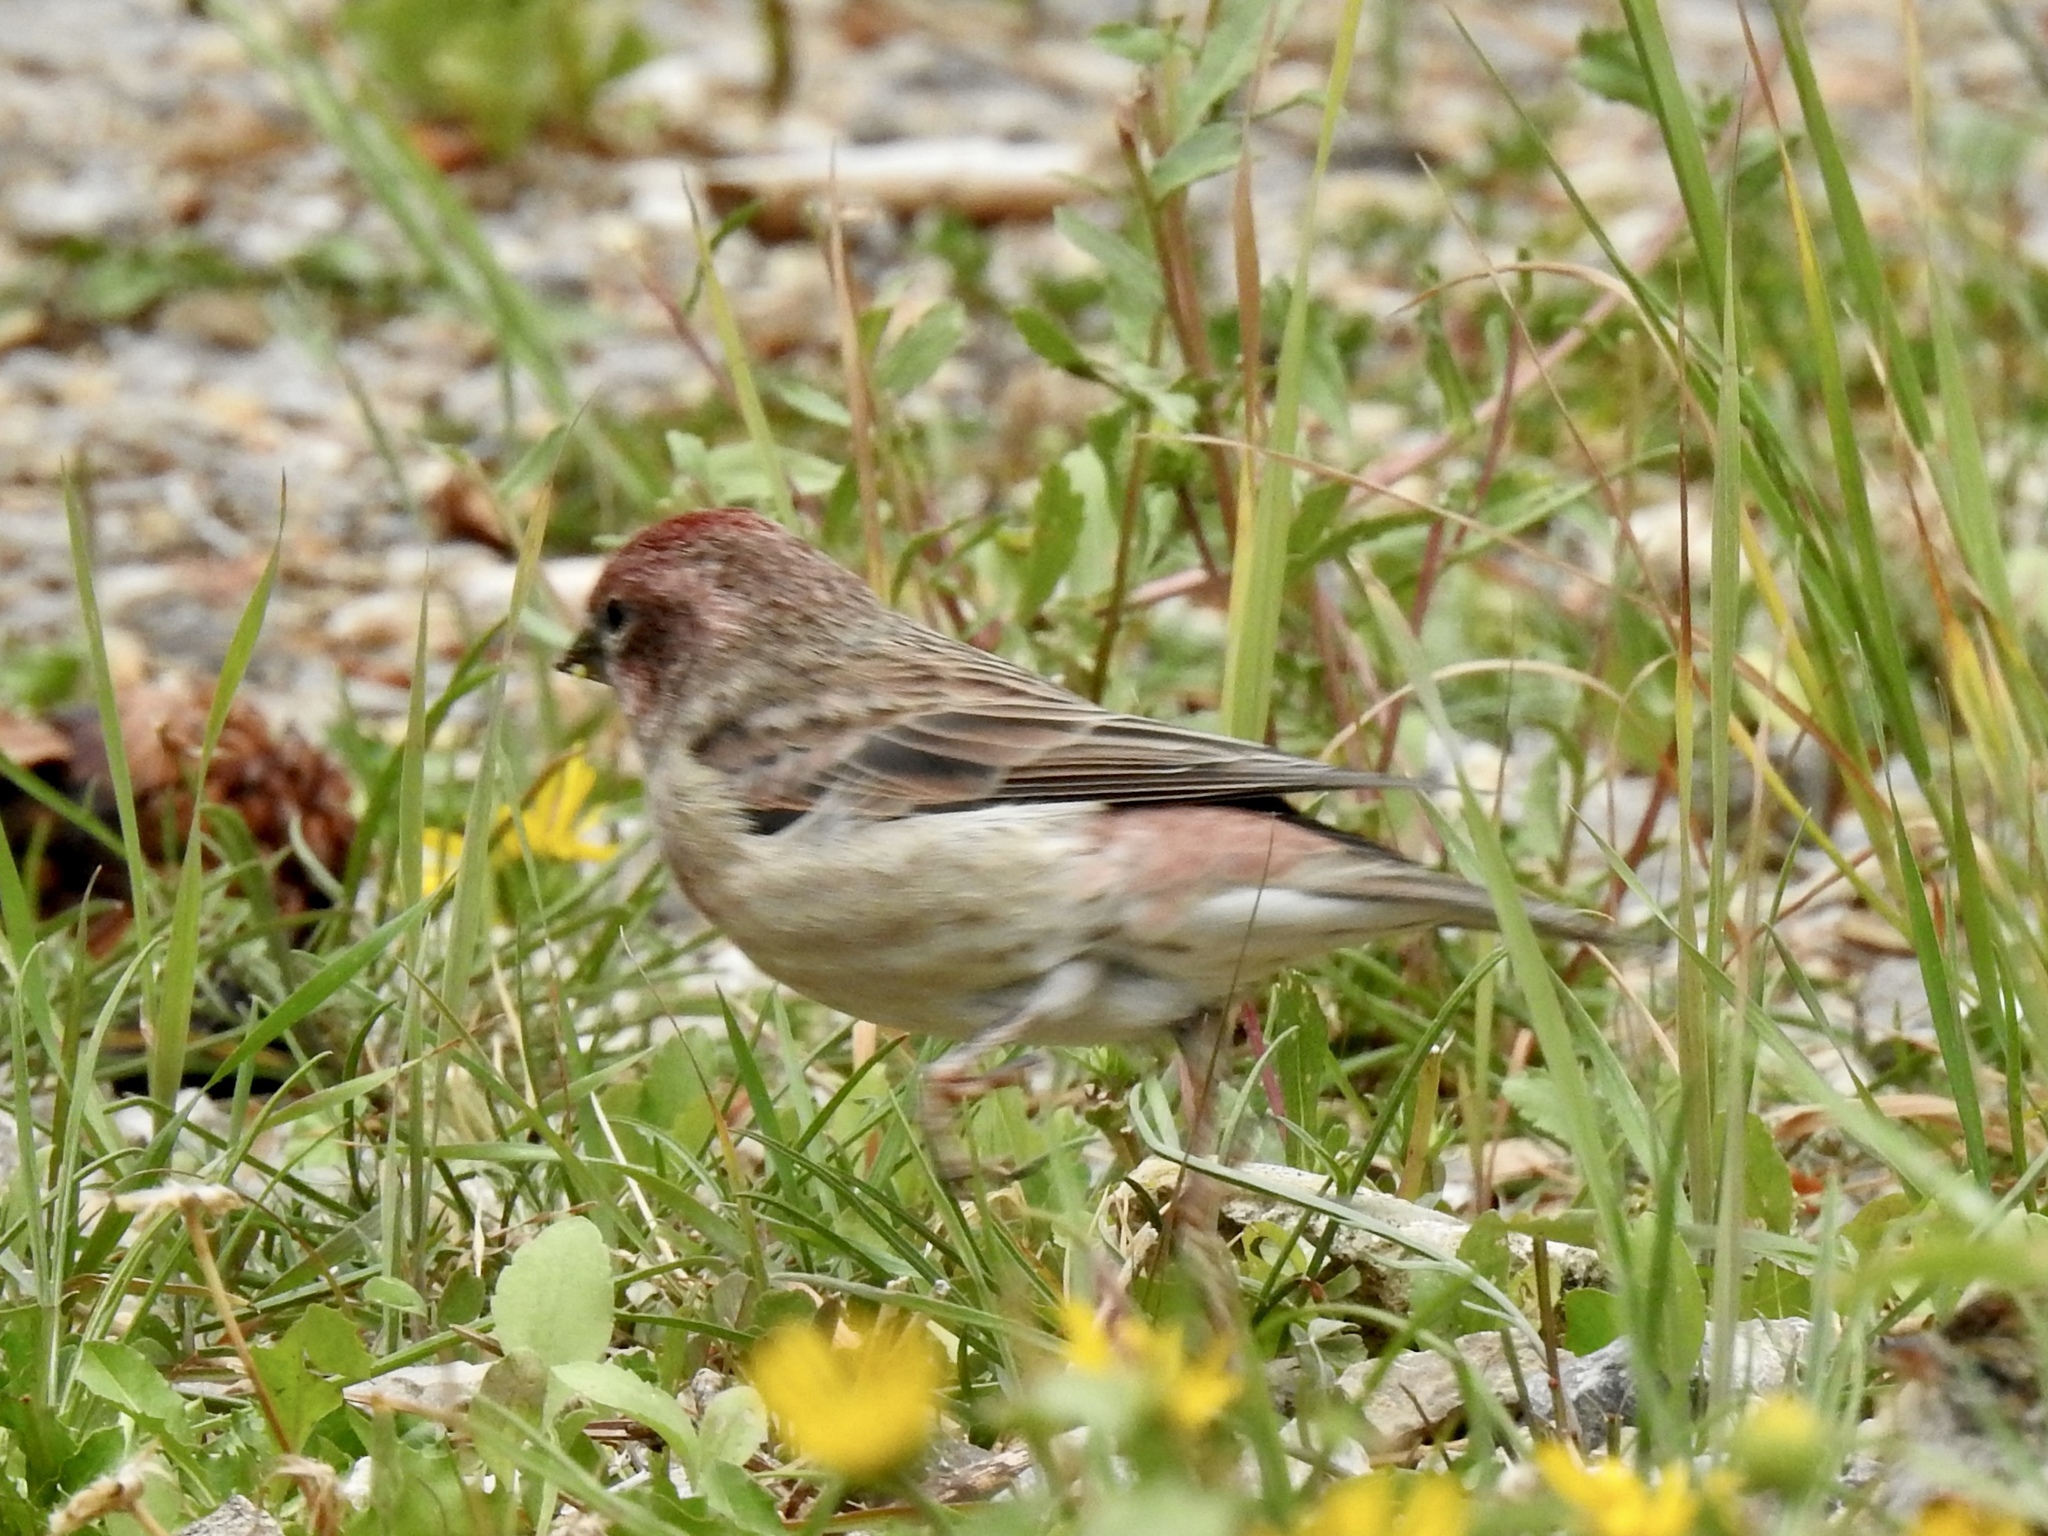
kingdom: Animalia
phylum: Chordata
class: Aves
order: Passeriformes
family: Fringillidae
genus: Haemorhous
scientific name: Haemorhous cassinii
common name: Cassin's finch
